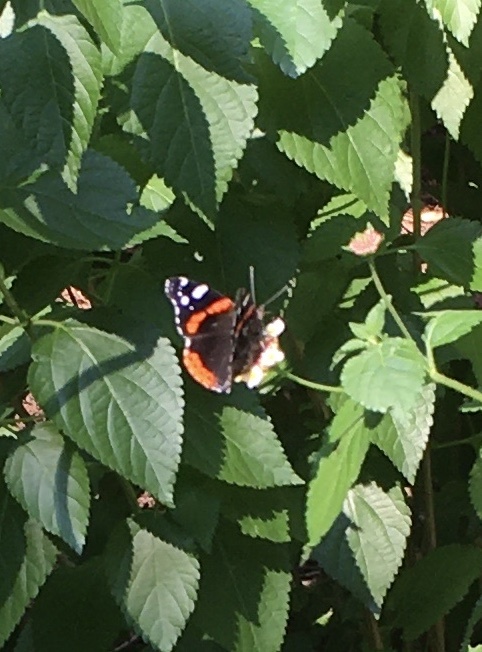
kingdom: Animalia
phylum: Arthropoda
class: Insecta
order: Lepidoptera
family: Nymphalidae
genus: Vanessa
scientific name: Vanessa atalanta
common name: Red admiral
